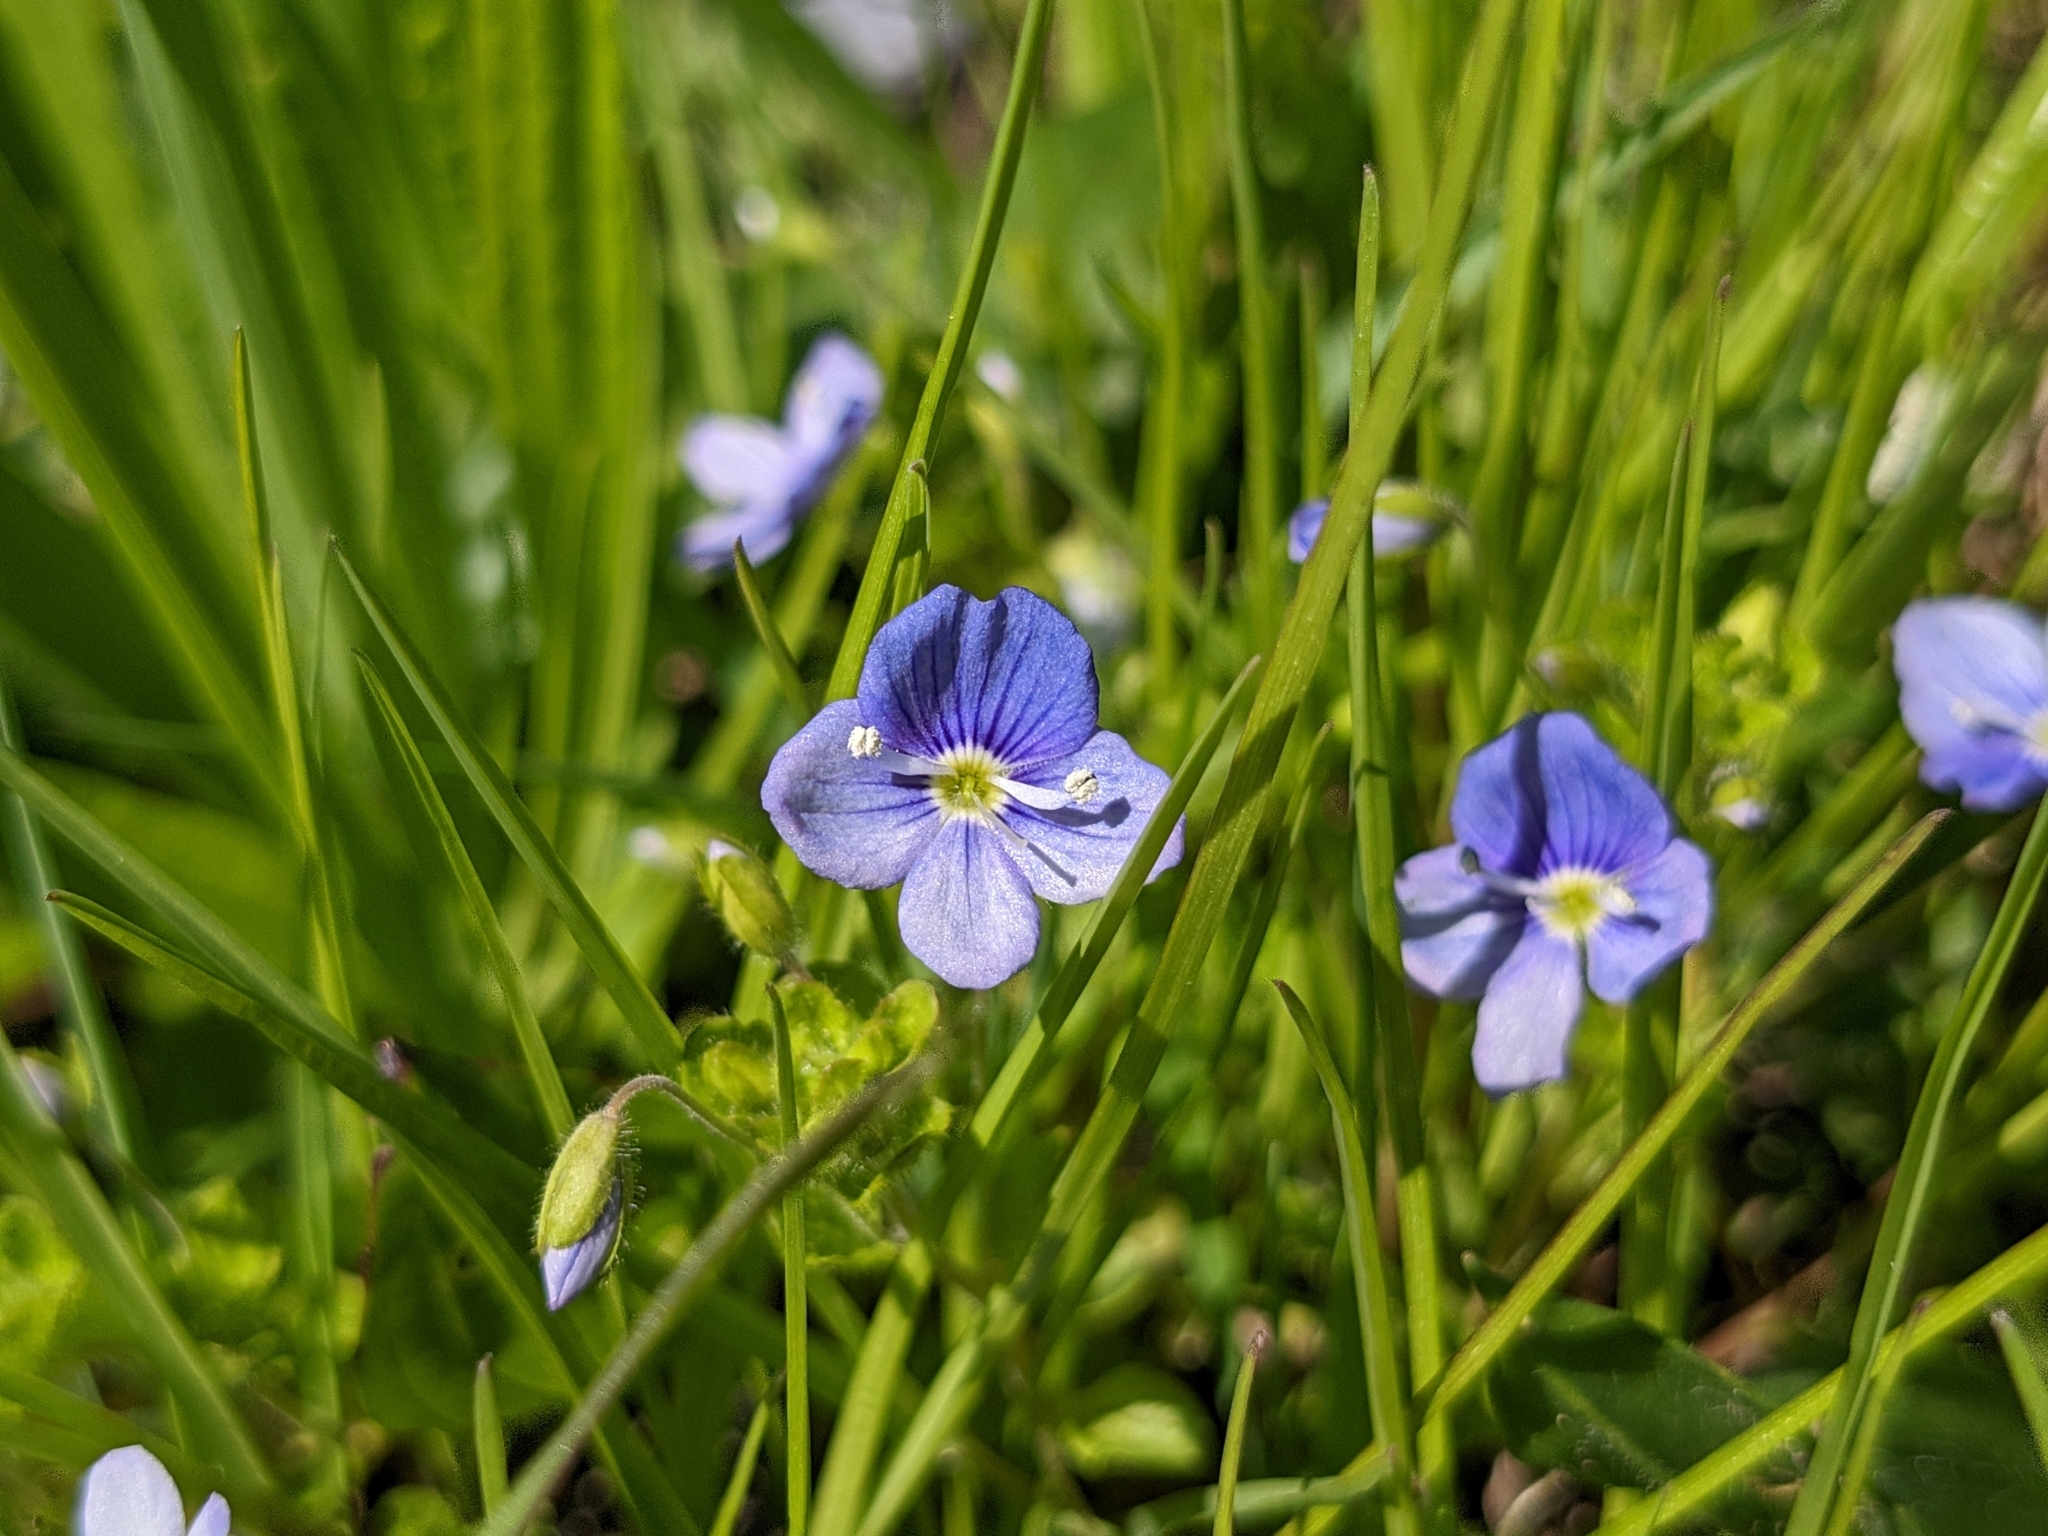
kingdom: Plantae
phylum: Tracheophyta
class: Magnoliopsida
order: Lamiales
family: Plantaginaceae
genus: Veronica
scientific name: Veronica filiformis
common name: Slender speedwell
